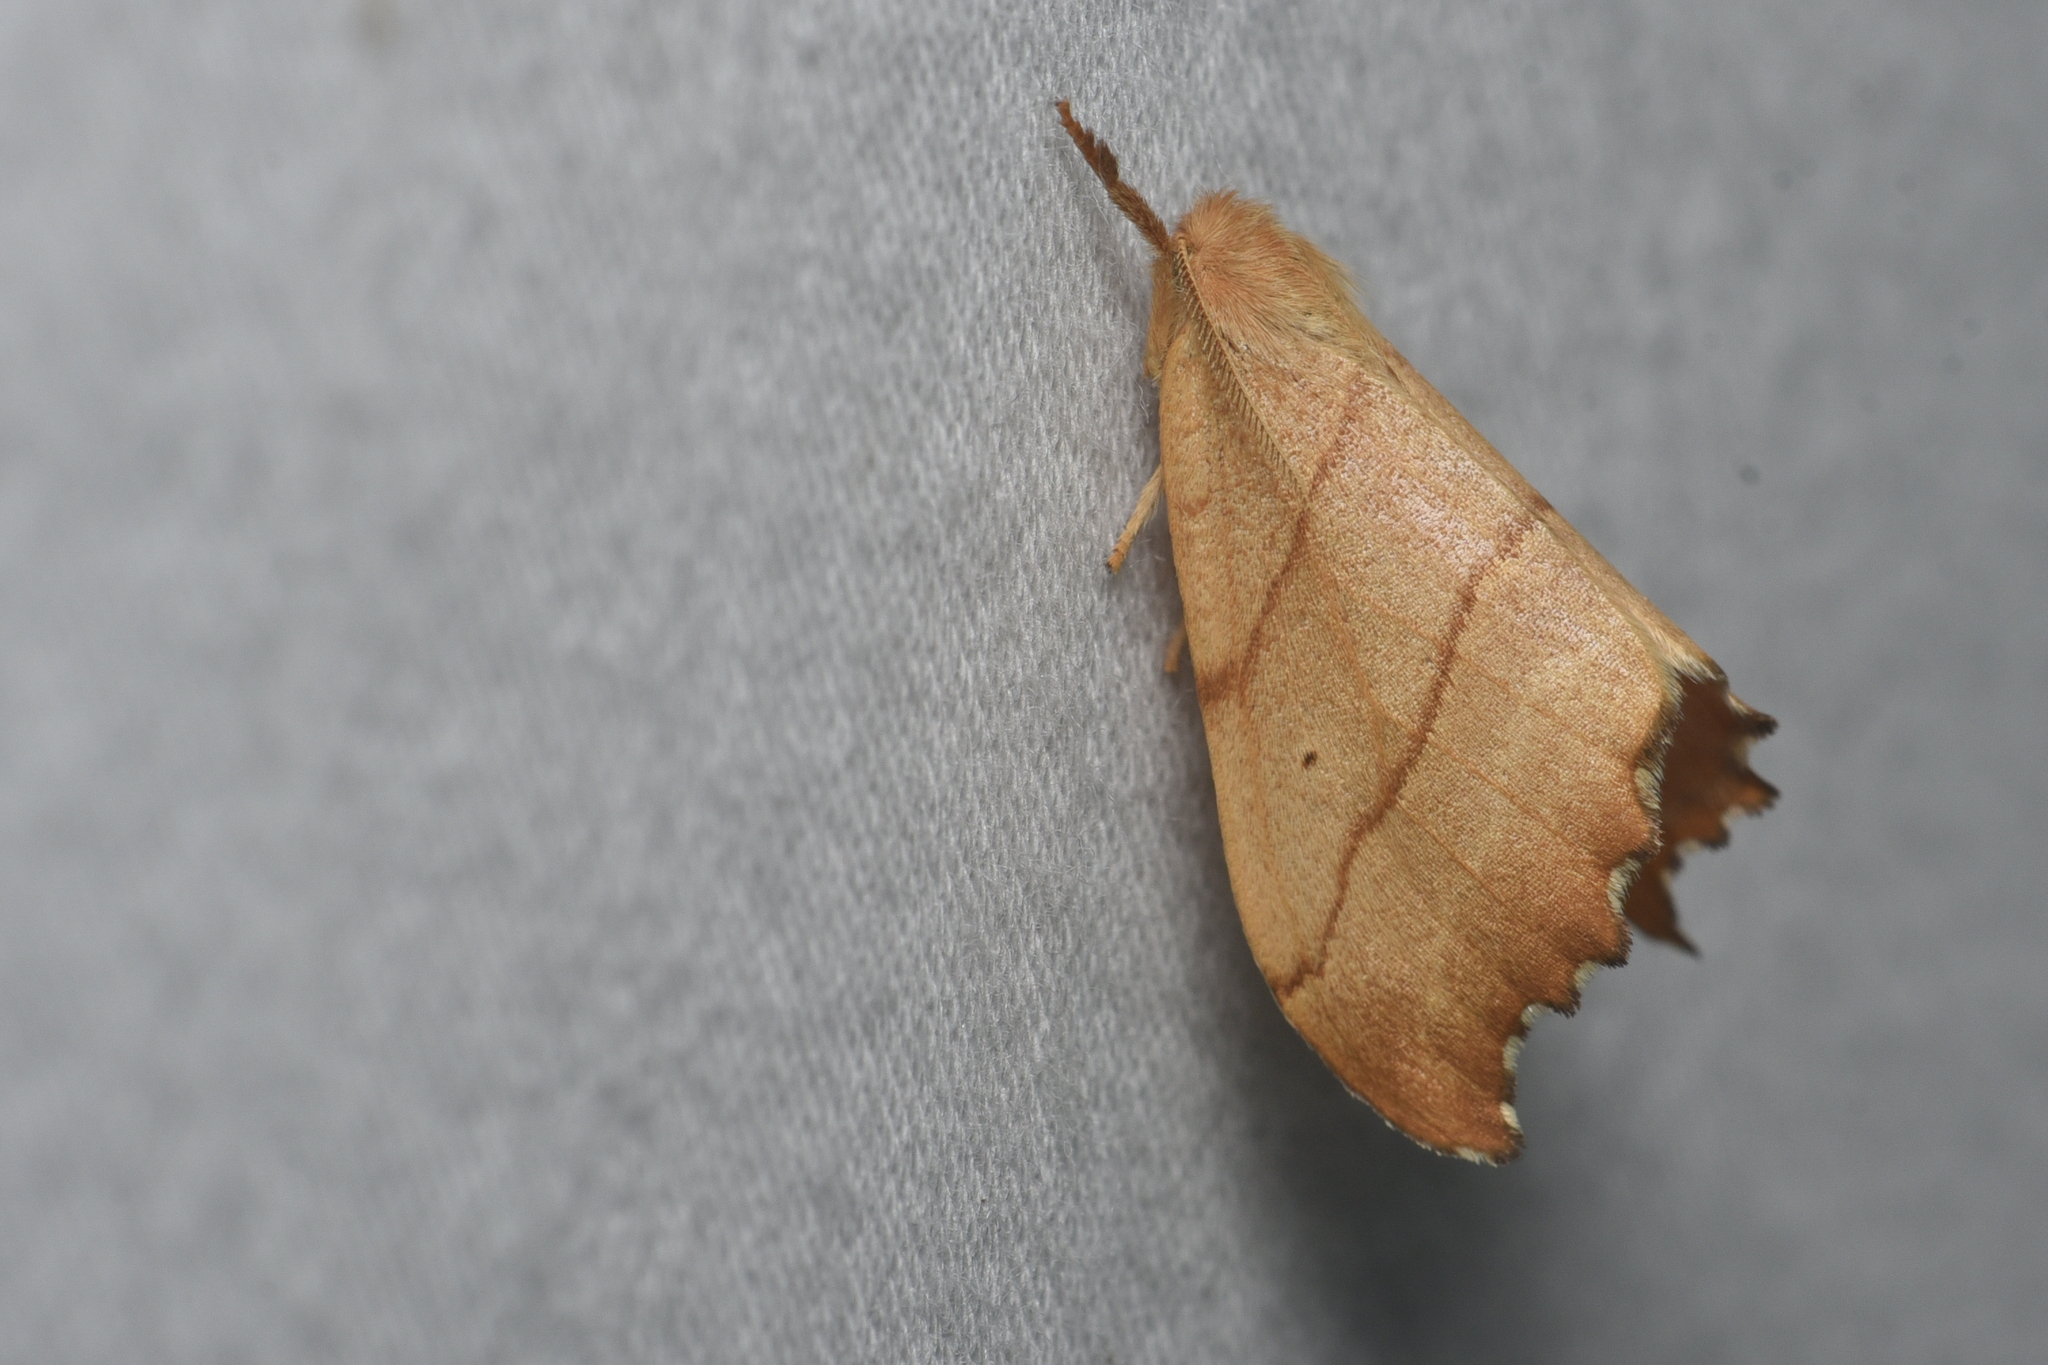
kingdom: Animalia
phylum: Arthropoda
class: Insecta
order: Lepidoptera
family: Drepanidae
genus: Falcaria
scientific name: Falcaria bilineata
